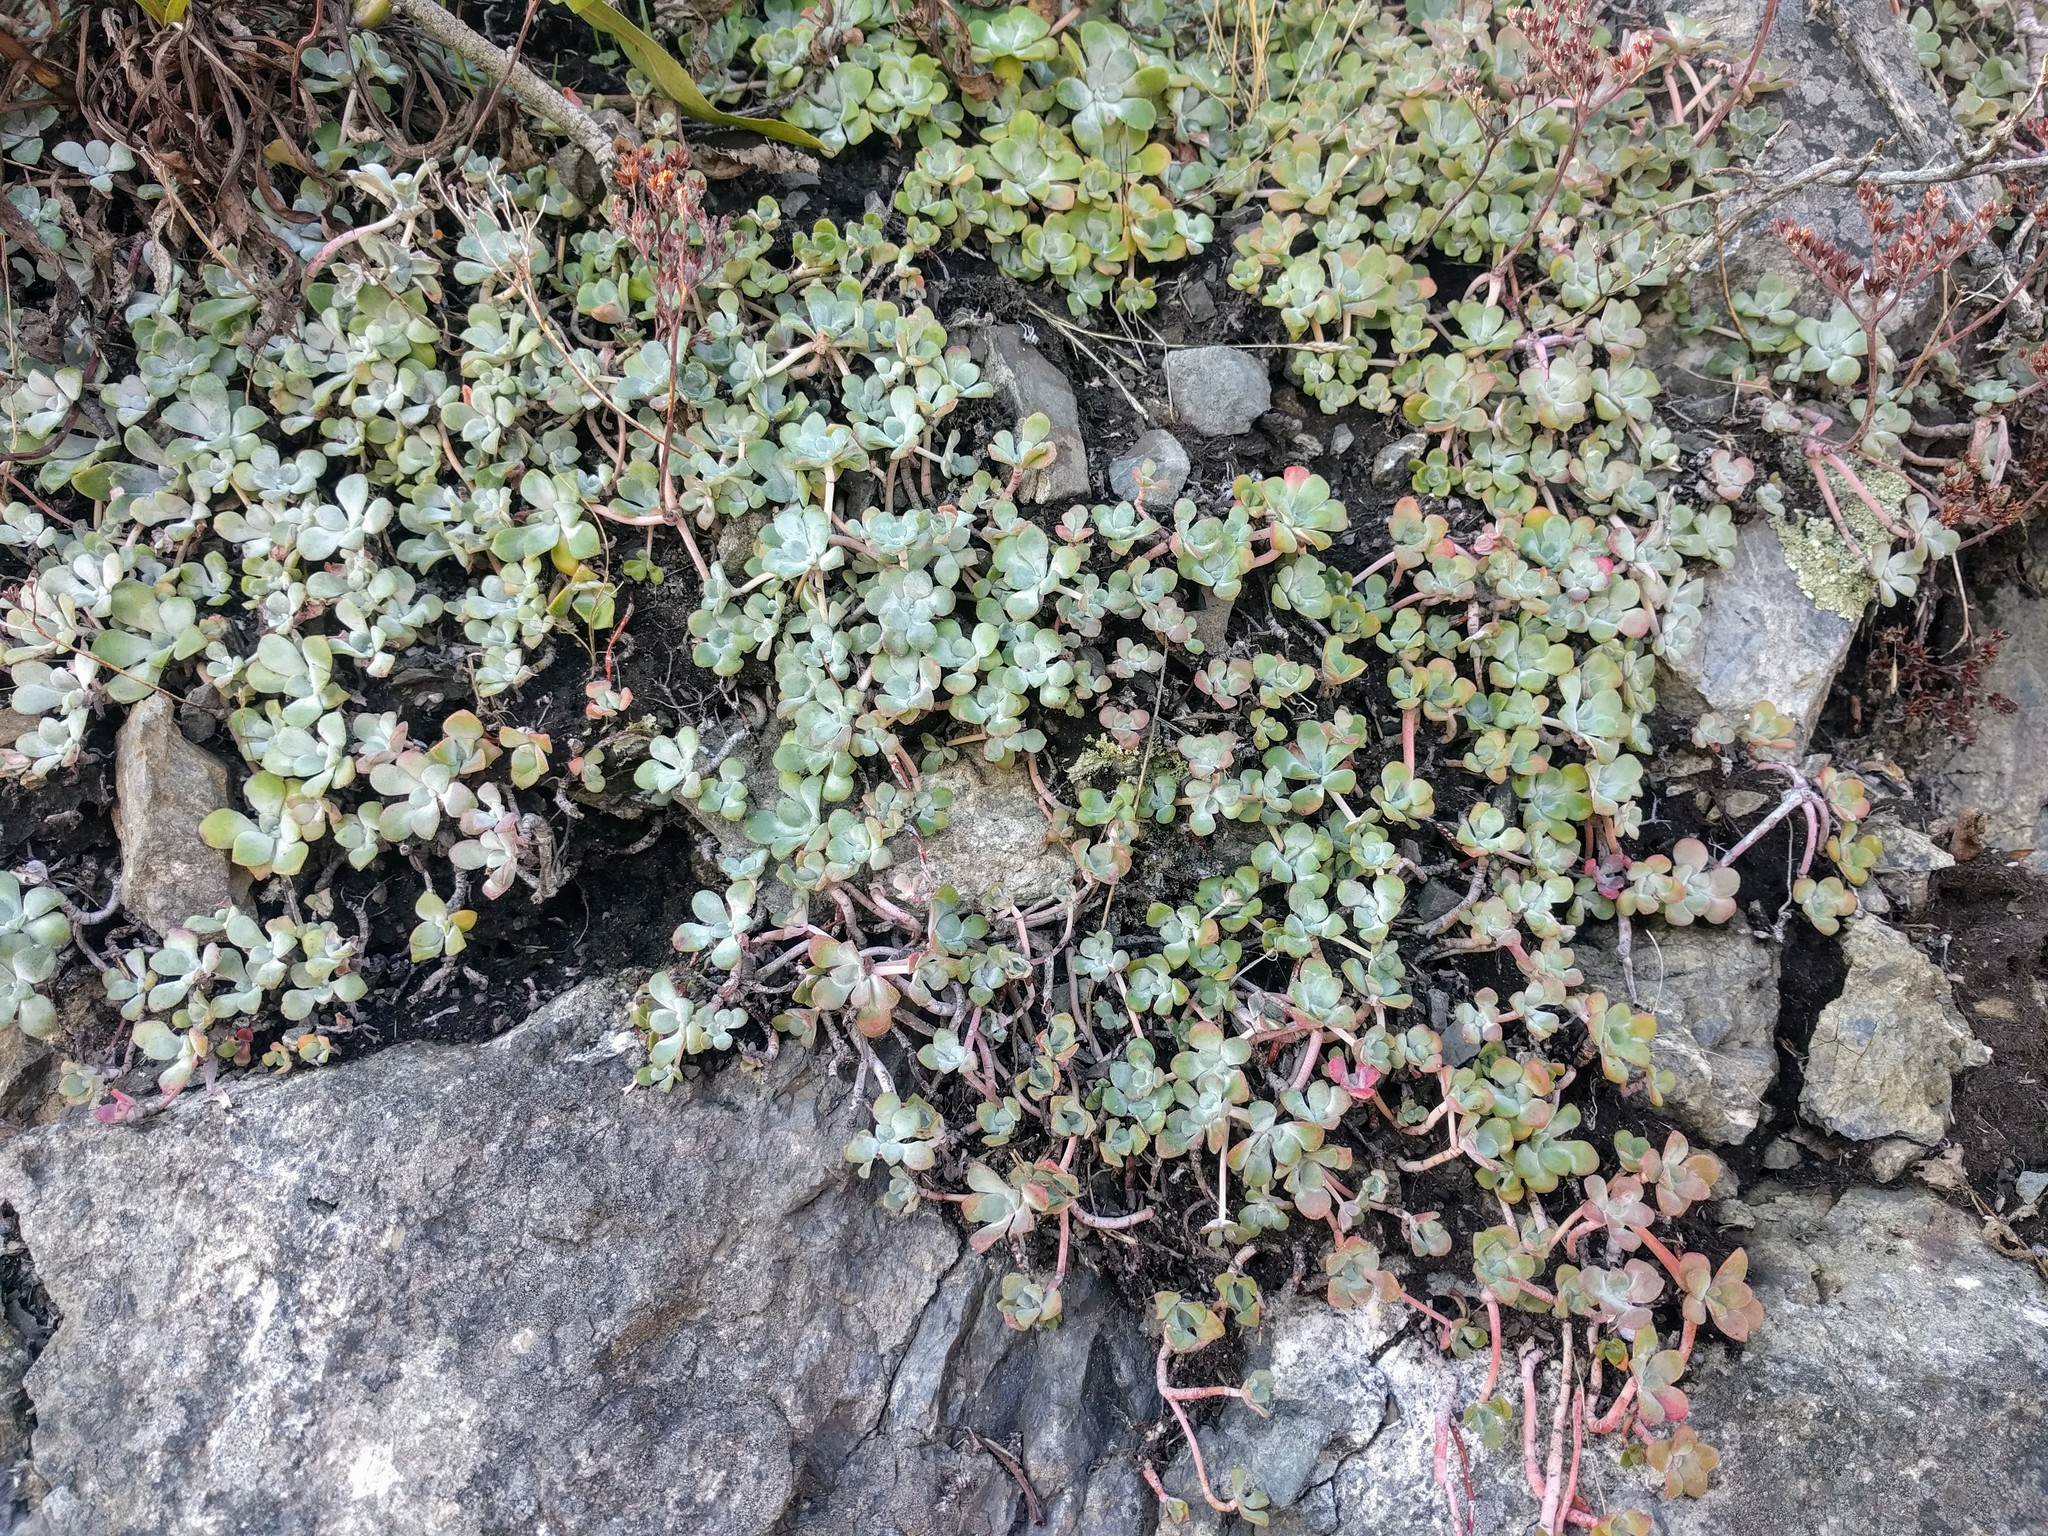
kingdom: Plantae
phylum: Tracheophyta
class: Magnoliopsida
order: Saxifragales
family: Crassulaceae
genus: Sedum
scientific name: Sedum spathulifolium
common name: Colorado stonecrop
